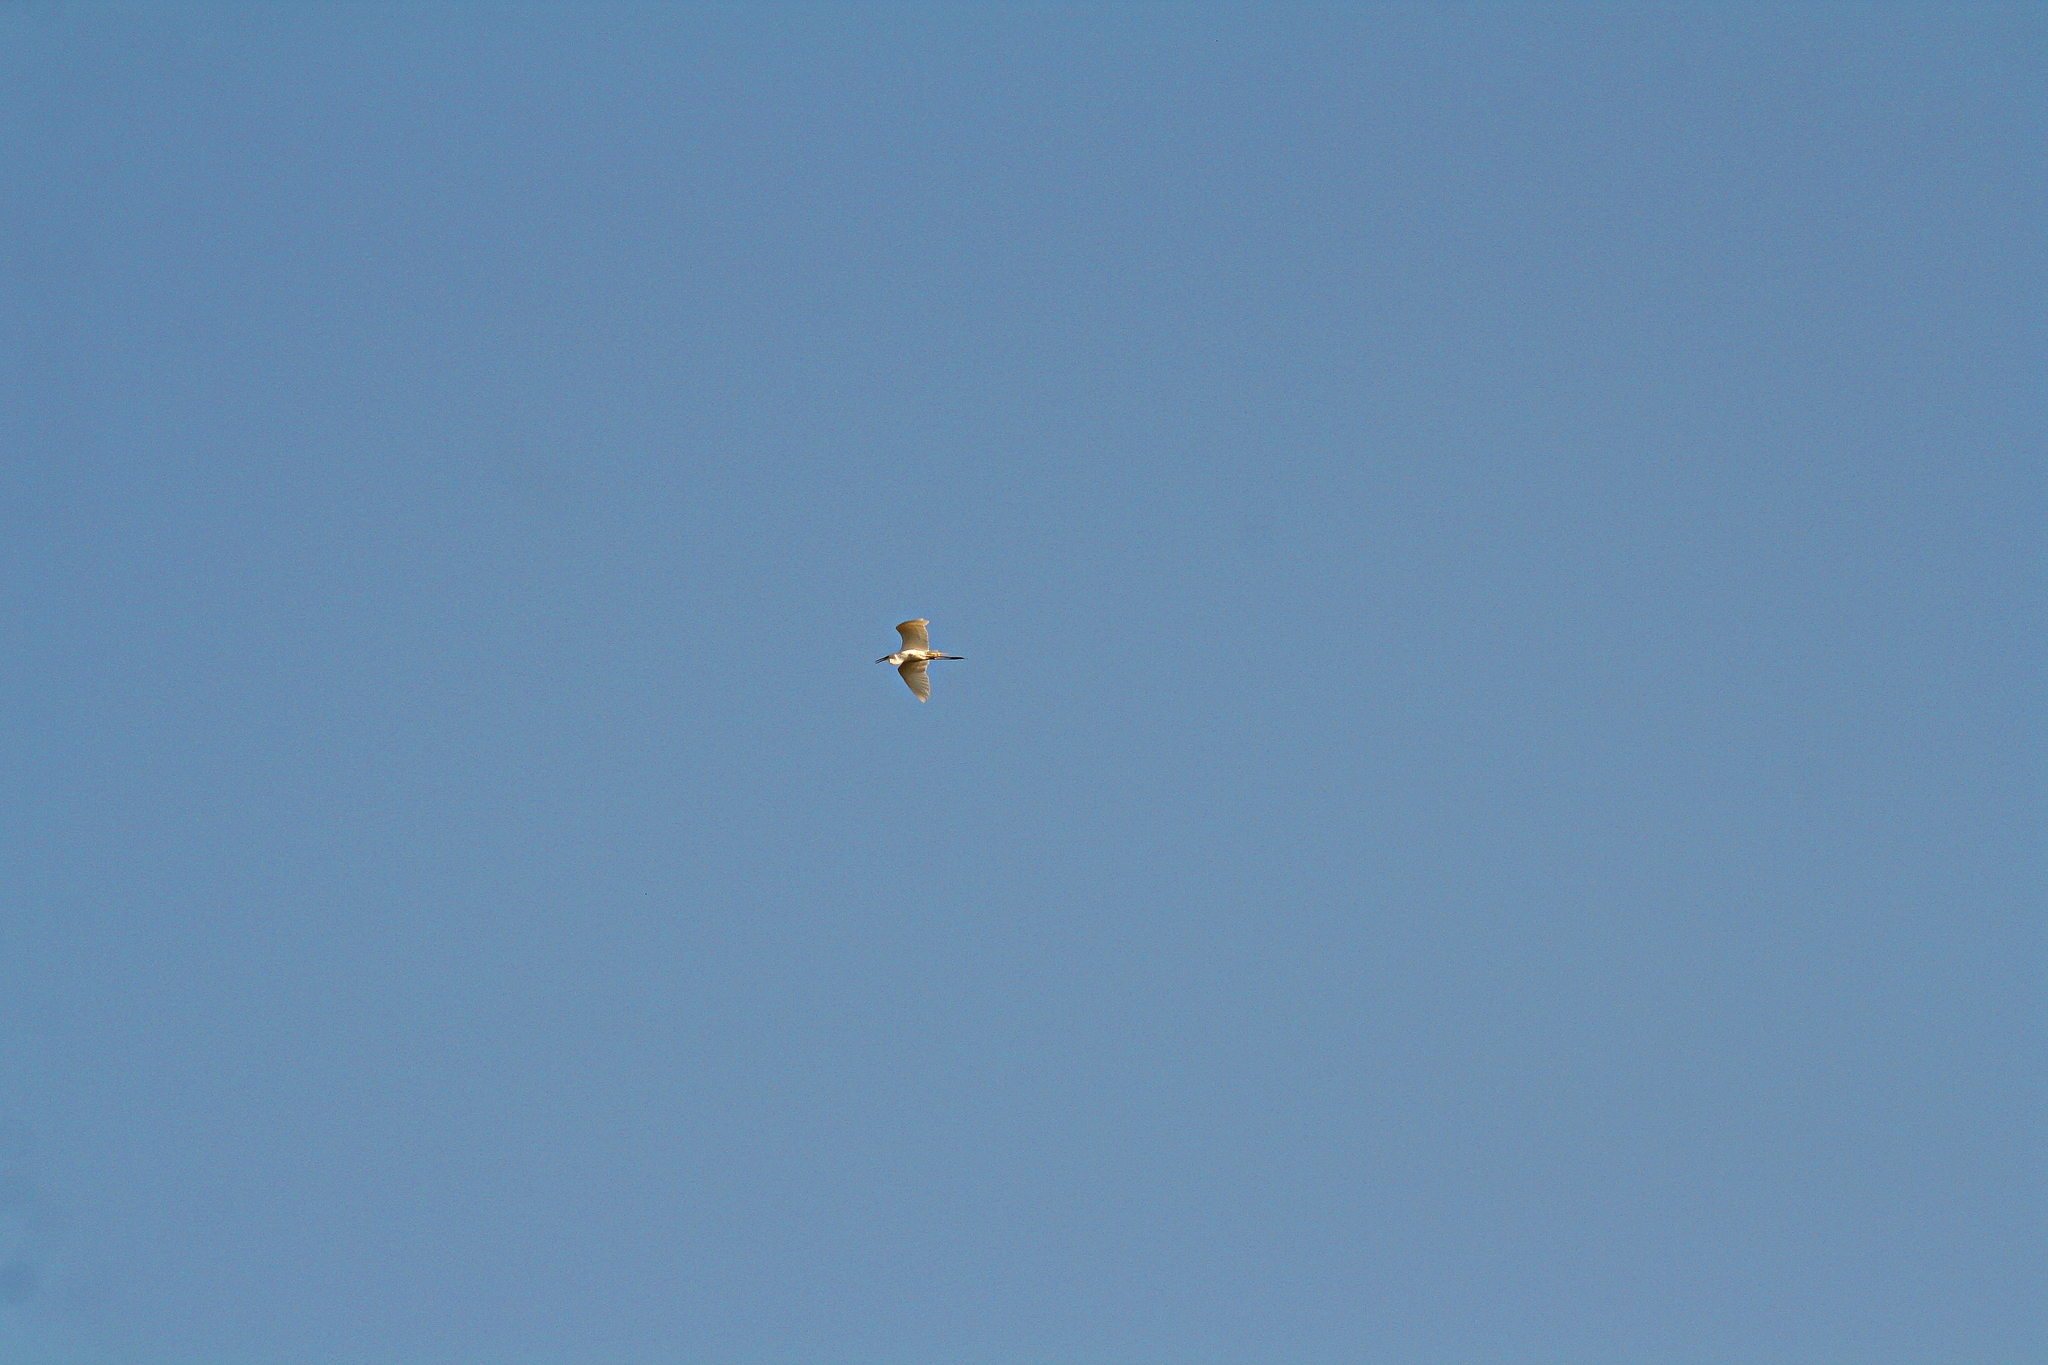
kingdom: Animalia
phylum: Chordata
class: Aves
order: Pelecaniformes
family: Ardeidae
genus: Ardea
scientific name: Ardea alba
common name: Great egret
